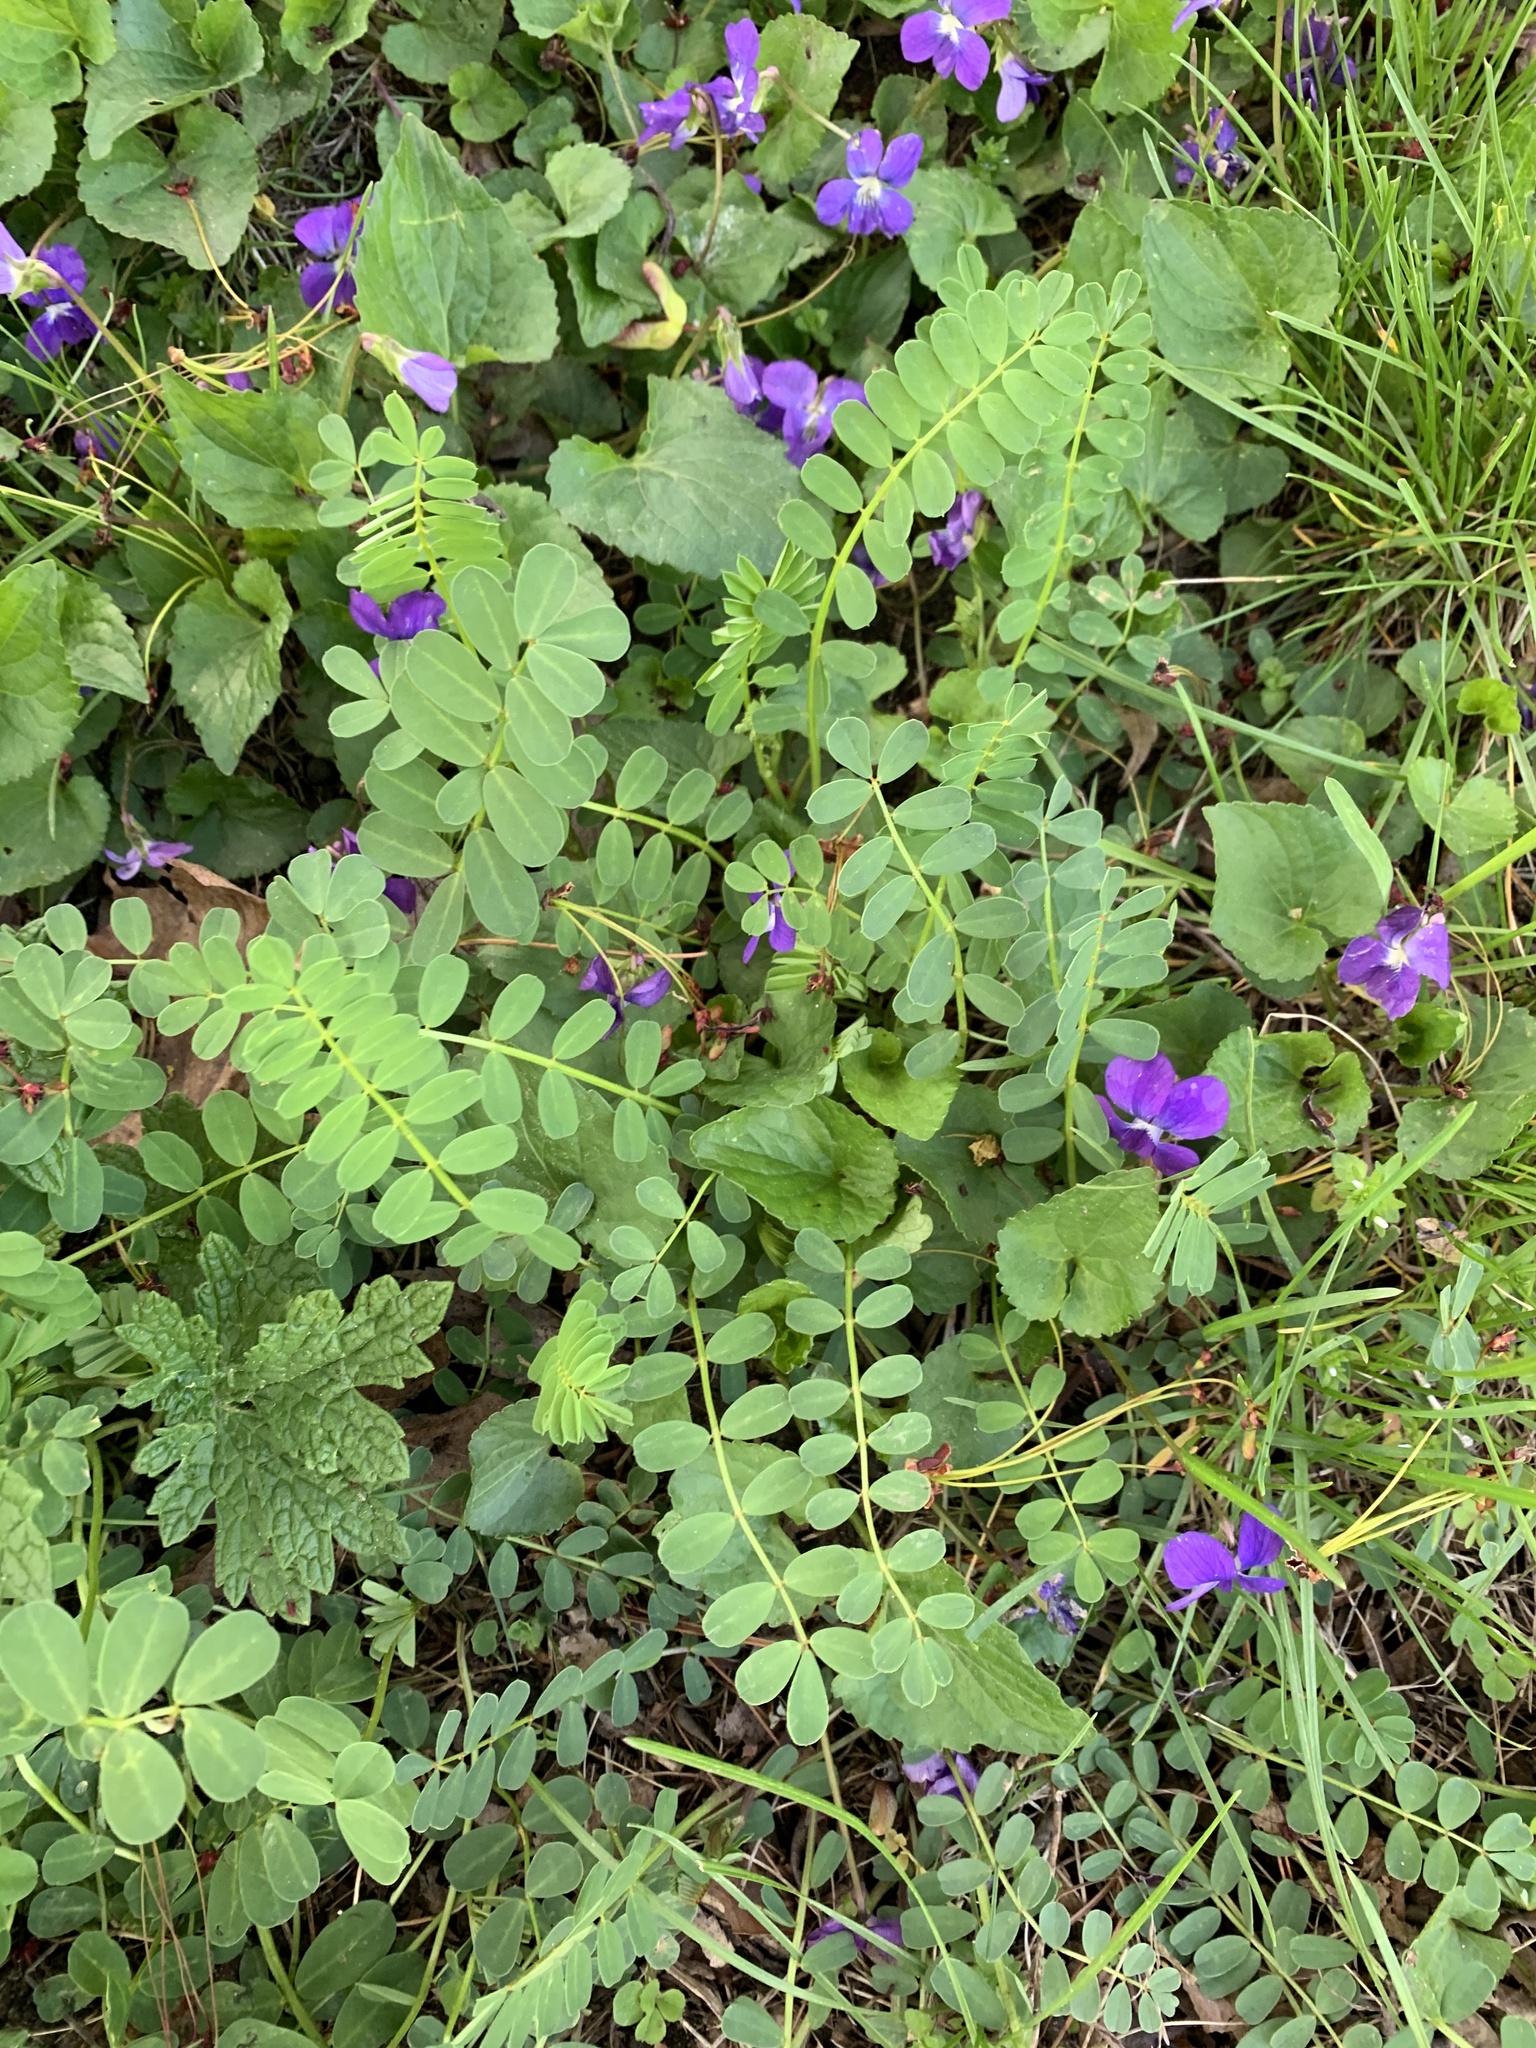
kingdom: Plantae
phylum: Tracheophyta
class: Magnoliopsida
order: Fabales
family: Fabaceae
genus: Coronilla
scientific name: Coronilla varia
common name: Crownvetch
